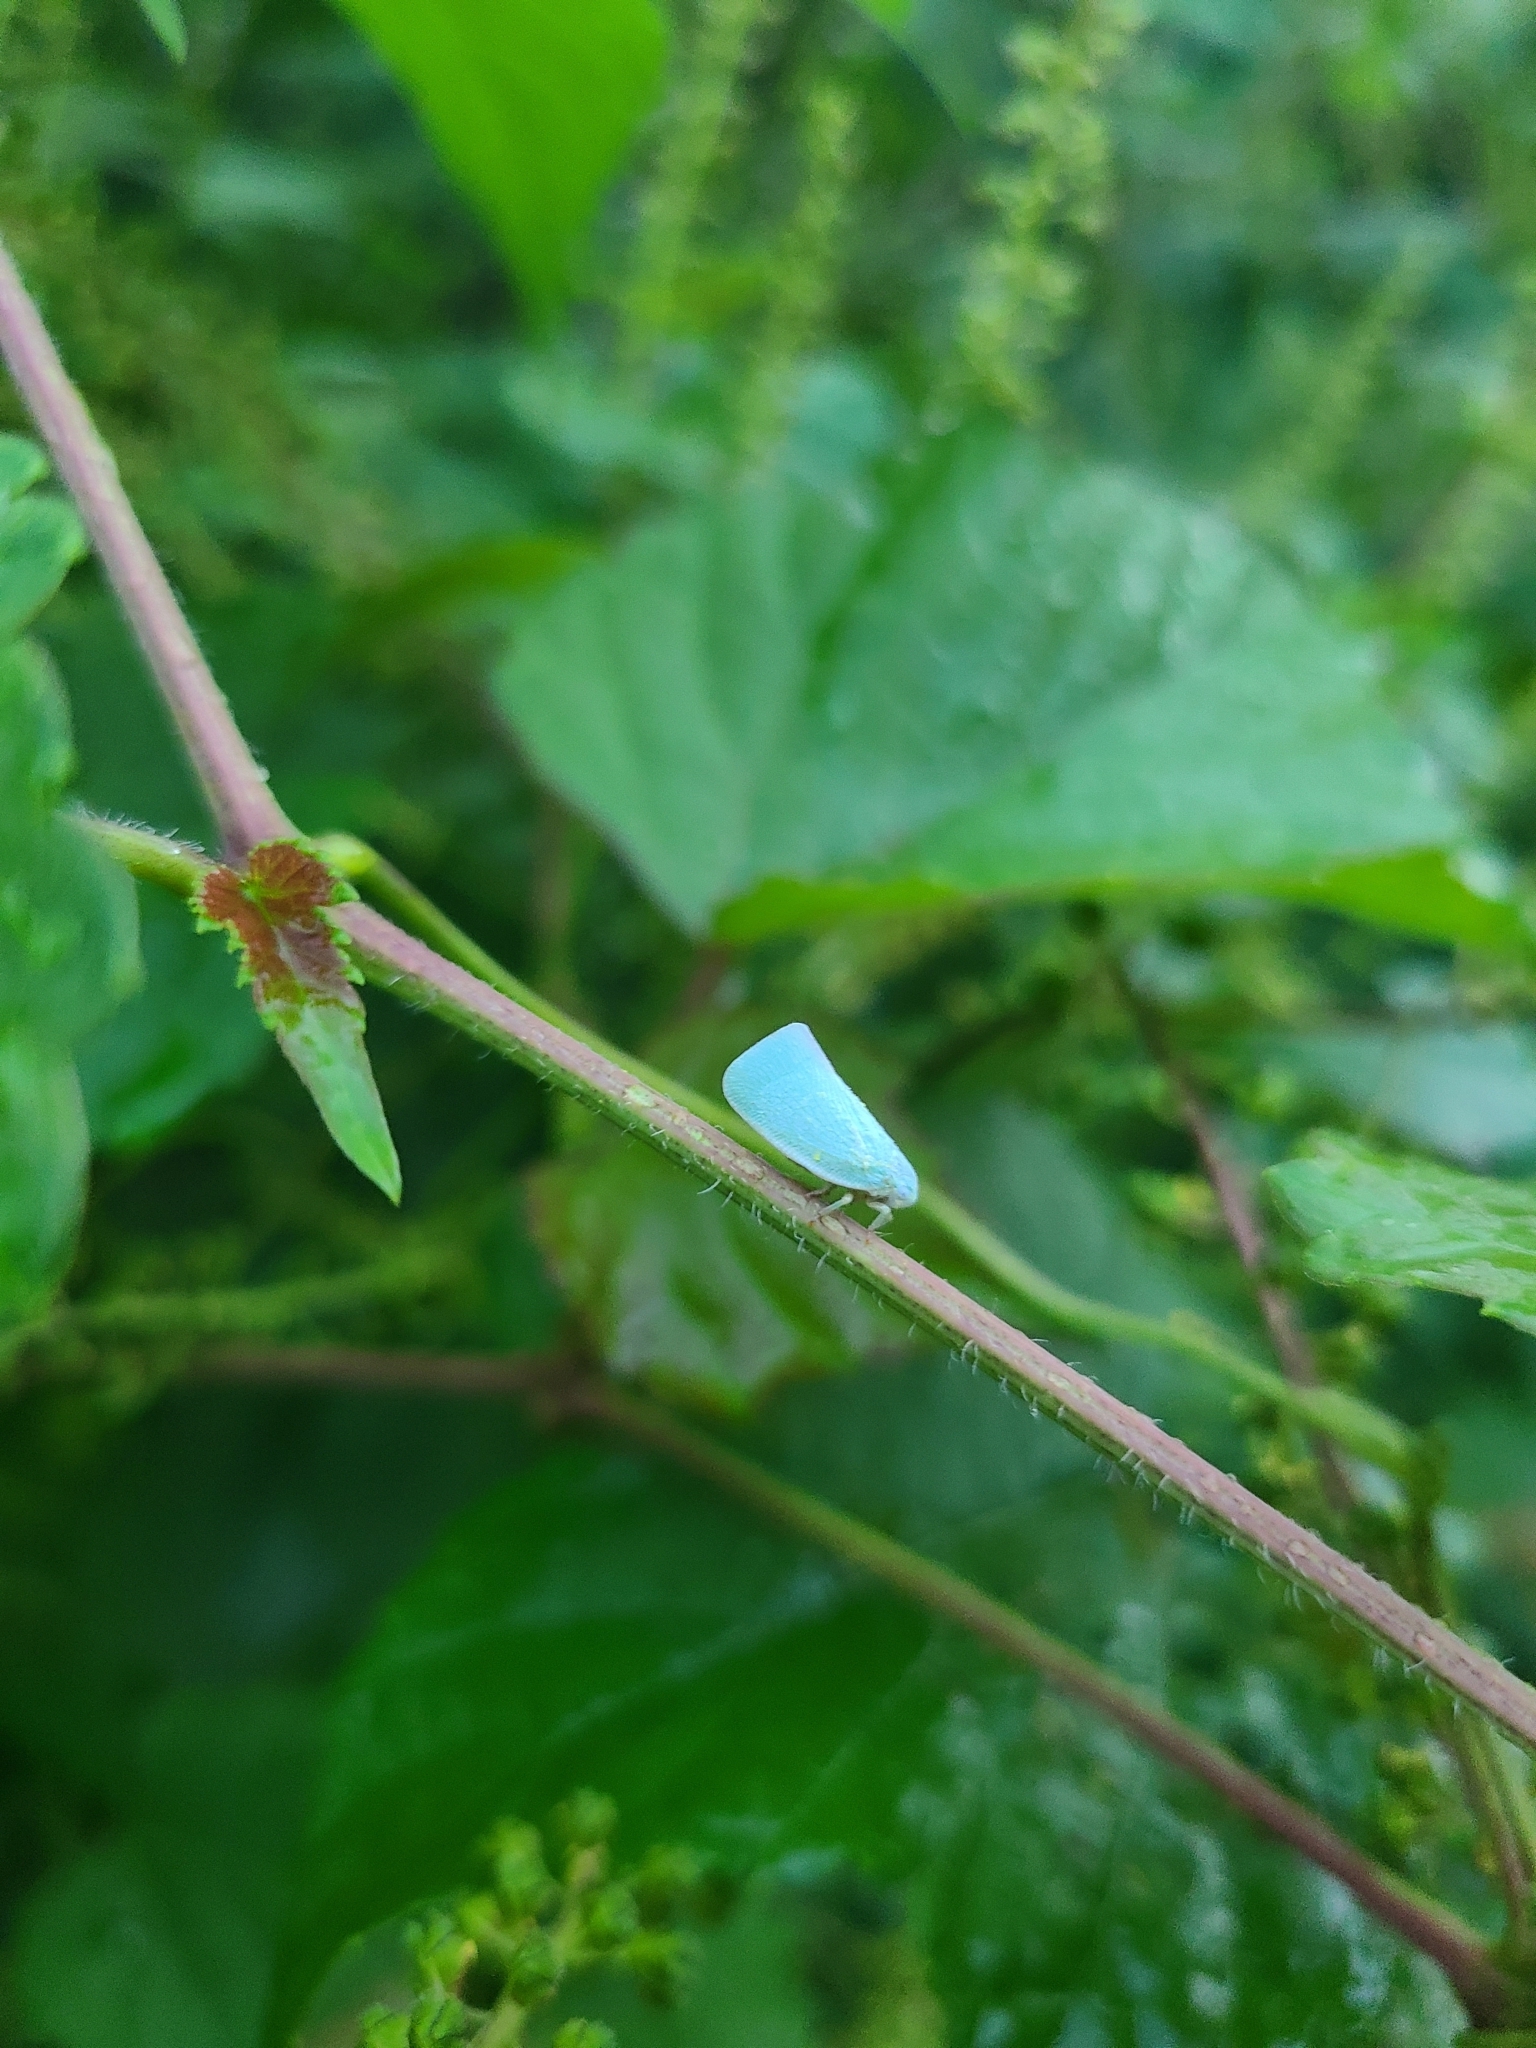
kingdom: Animalia
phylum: Arthropoda
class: Insecta
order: Hemiptera
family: Flatidae
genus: Flatormenis
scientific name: Flatormenis proxima
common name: Northern flatid planthopper
